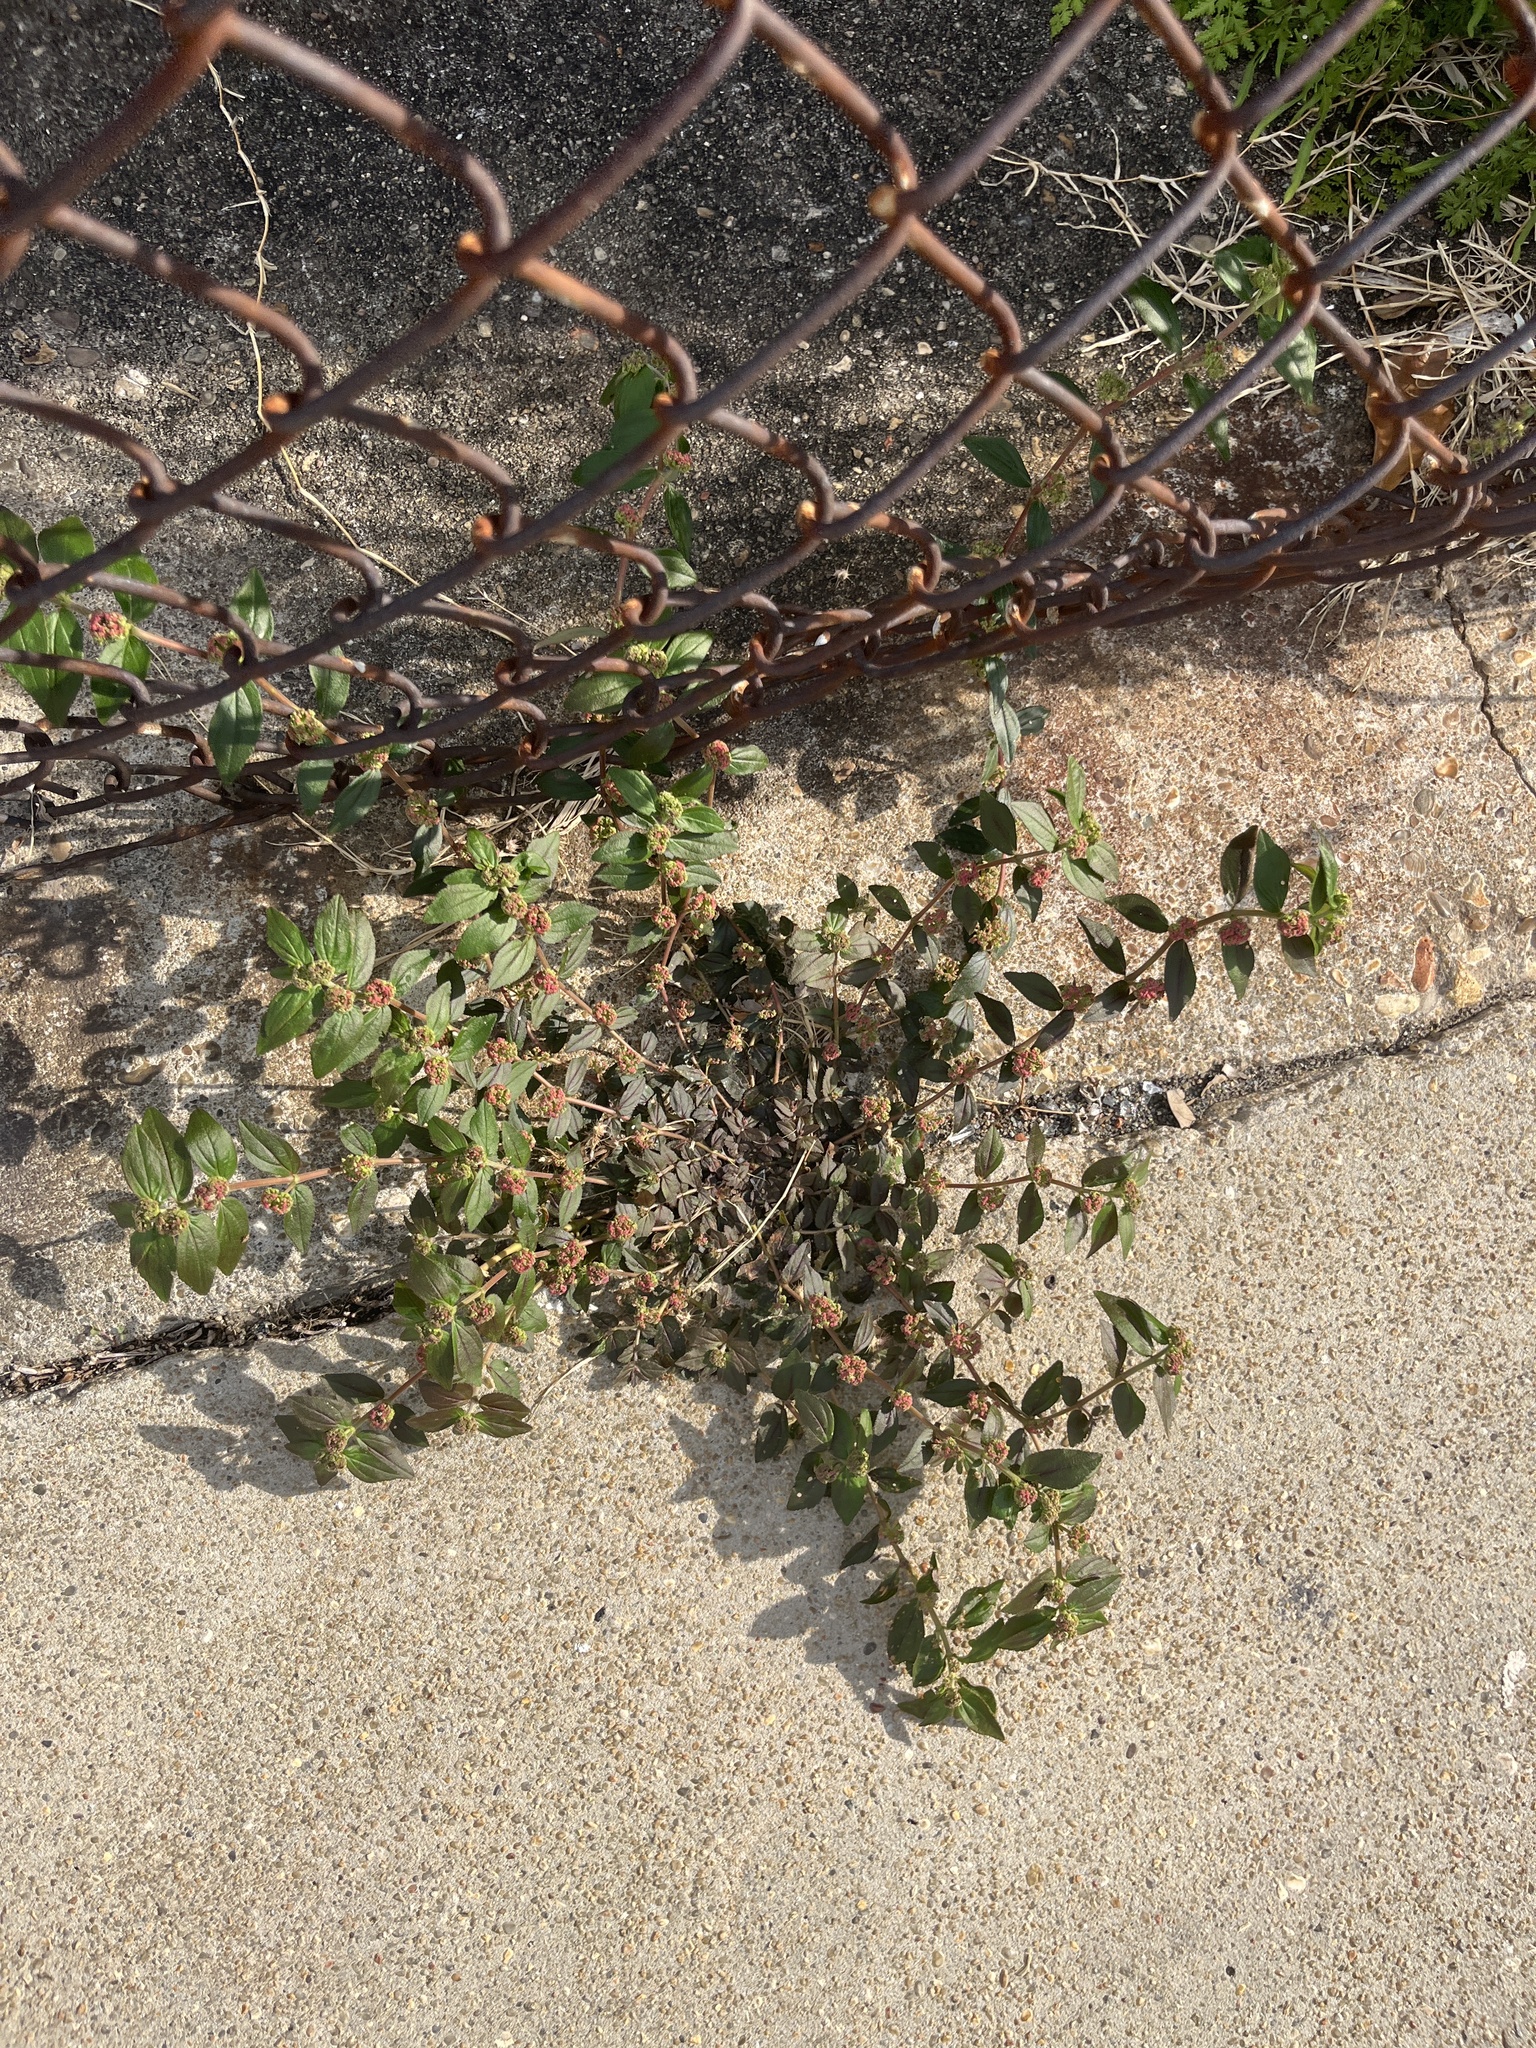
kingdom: Plantae
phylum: Tracheophyta
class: Magnoliopsida
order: Malpighiales
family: Euphorbiaceae
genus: Euphorbia
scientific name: Euphorbia hirta
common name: Pillpod sandmat
